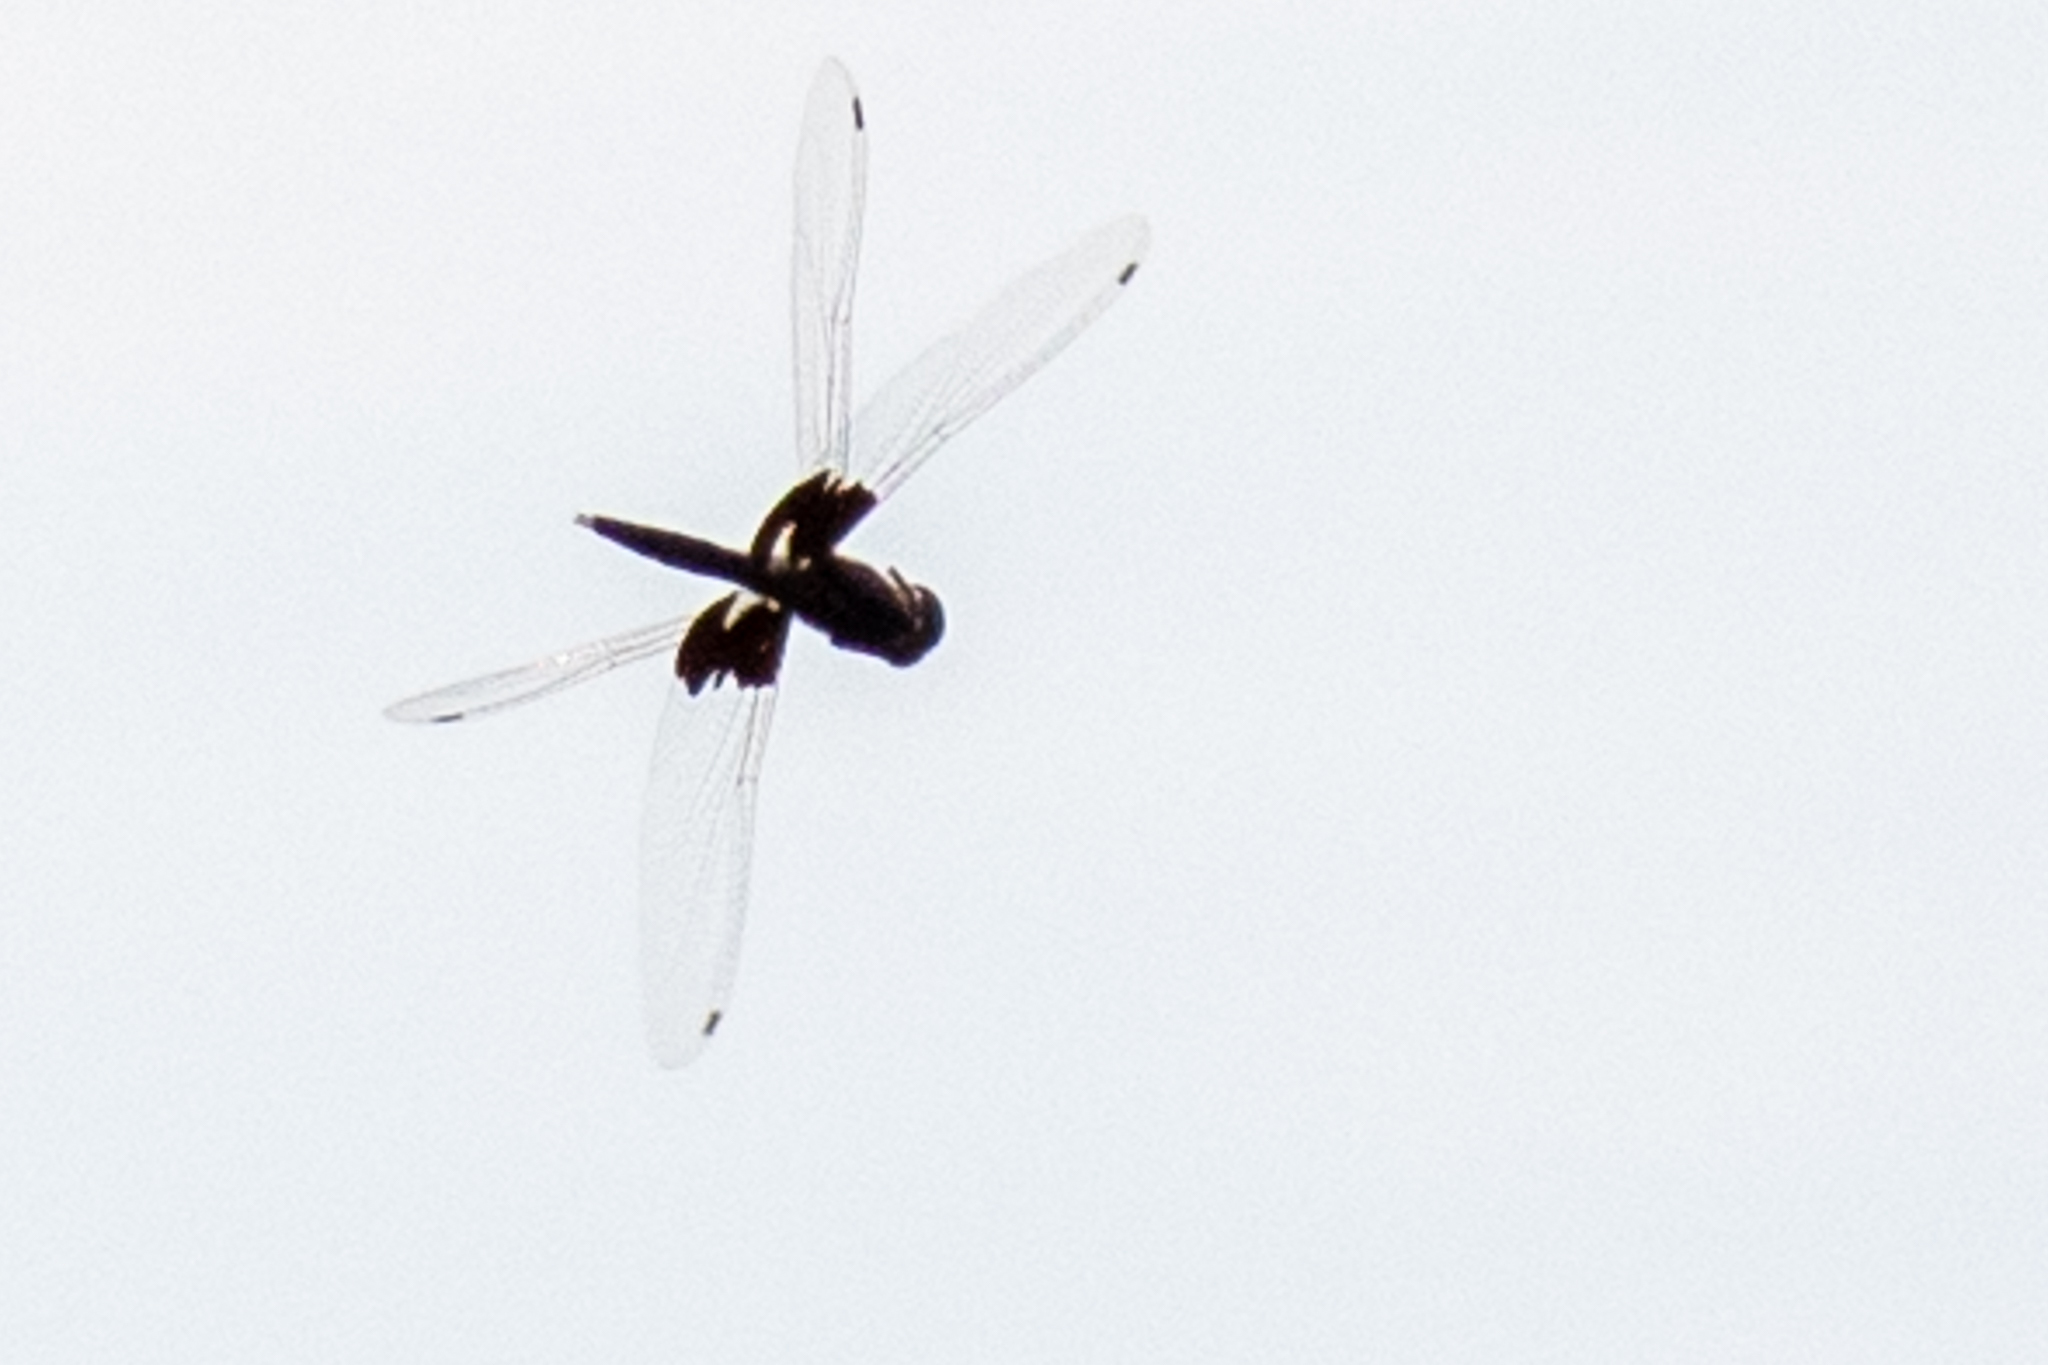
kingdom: Animalia
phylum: Arthropoda
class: Insecta
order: Odonata
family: Libellulidae
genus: Tramea
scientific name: Tramea lacerata
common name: Black saddlebags
